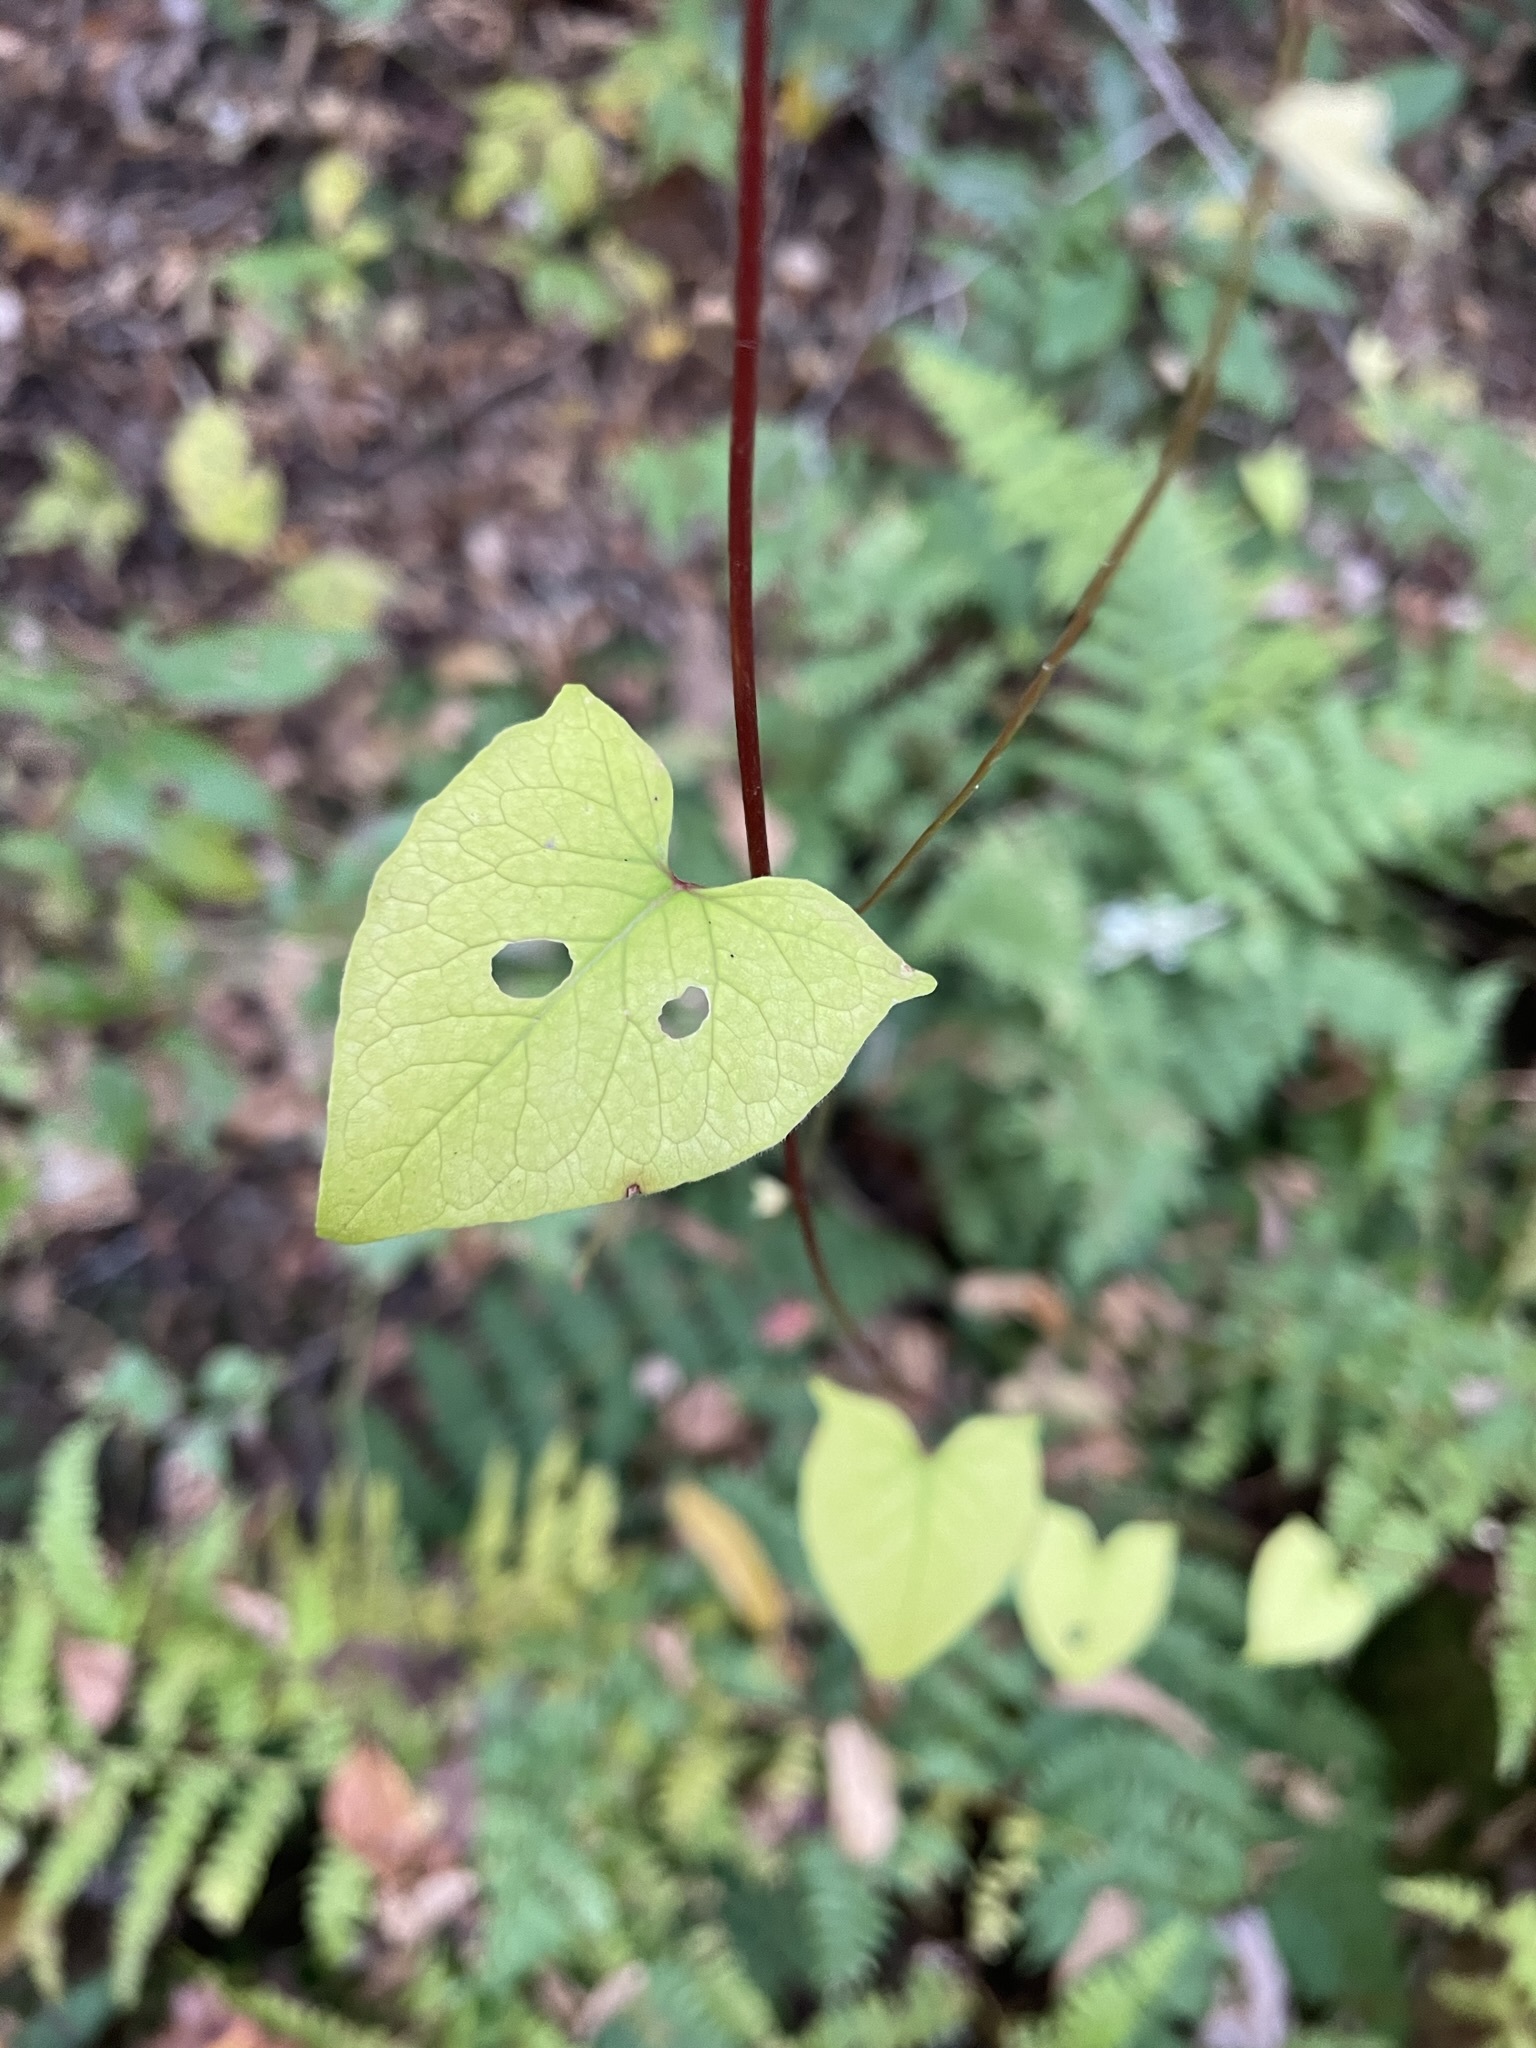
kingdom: Plantae
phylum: Tracheophyta
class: Magnoliopsida
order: Caryophyllales
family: Polygonaceae
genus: Fallopia
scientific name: Fallopia scandens
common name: Climbing false buckwheat
